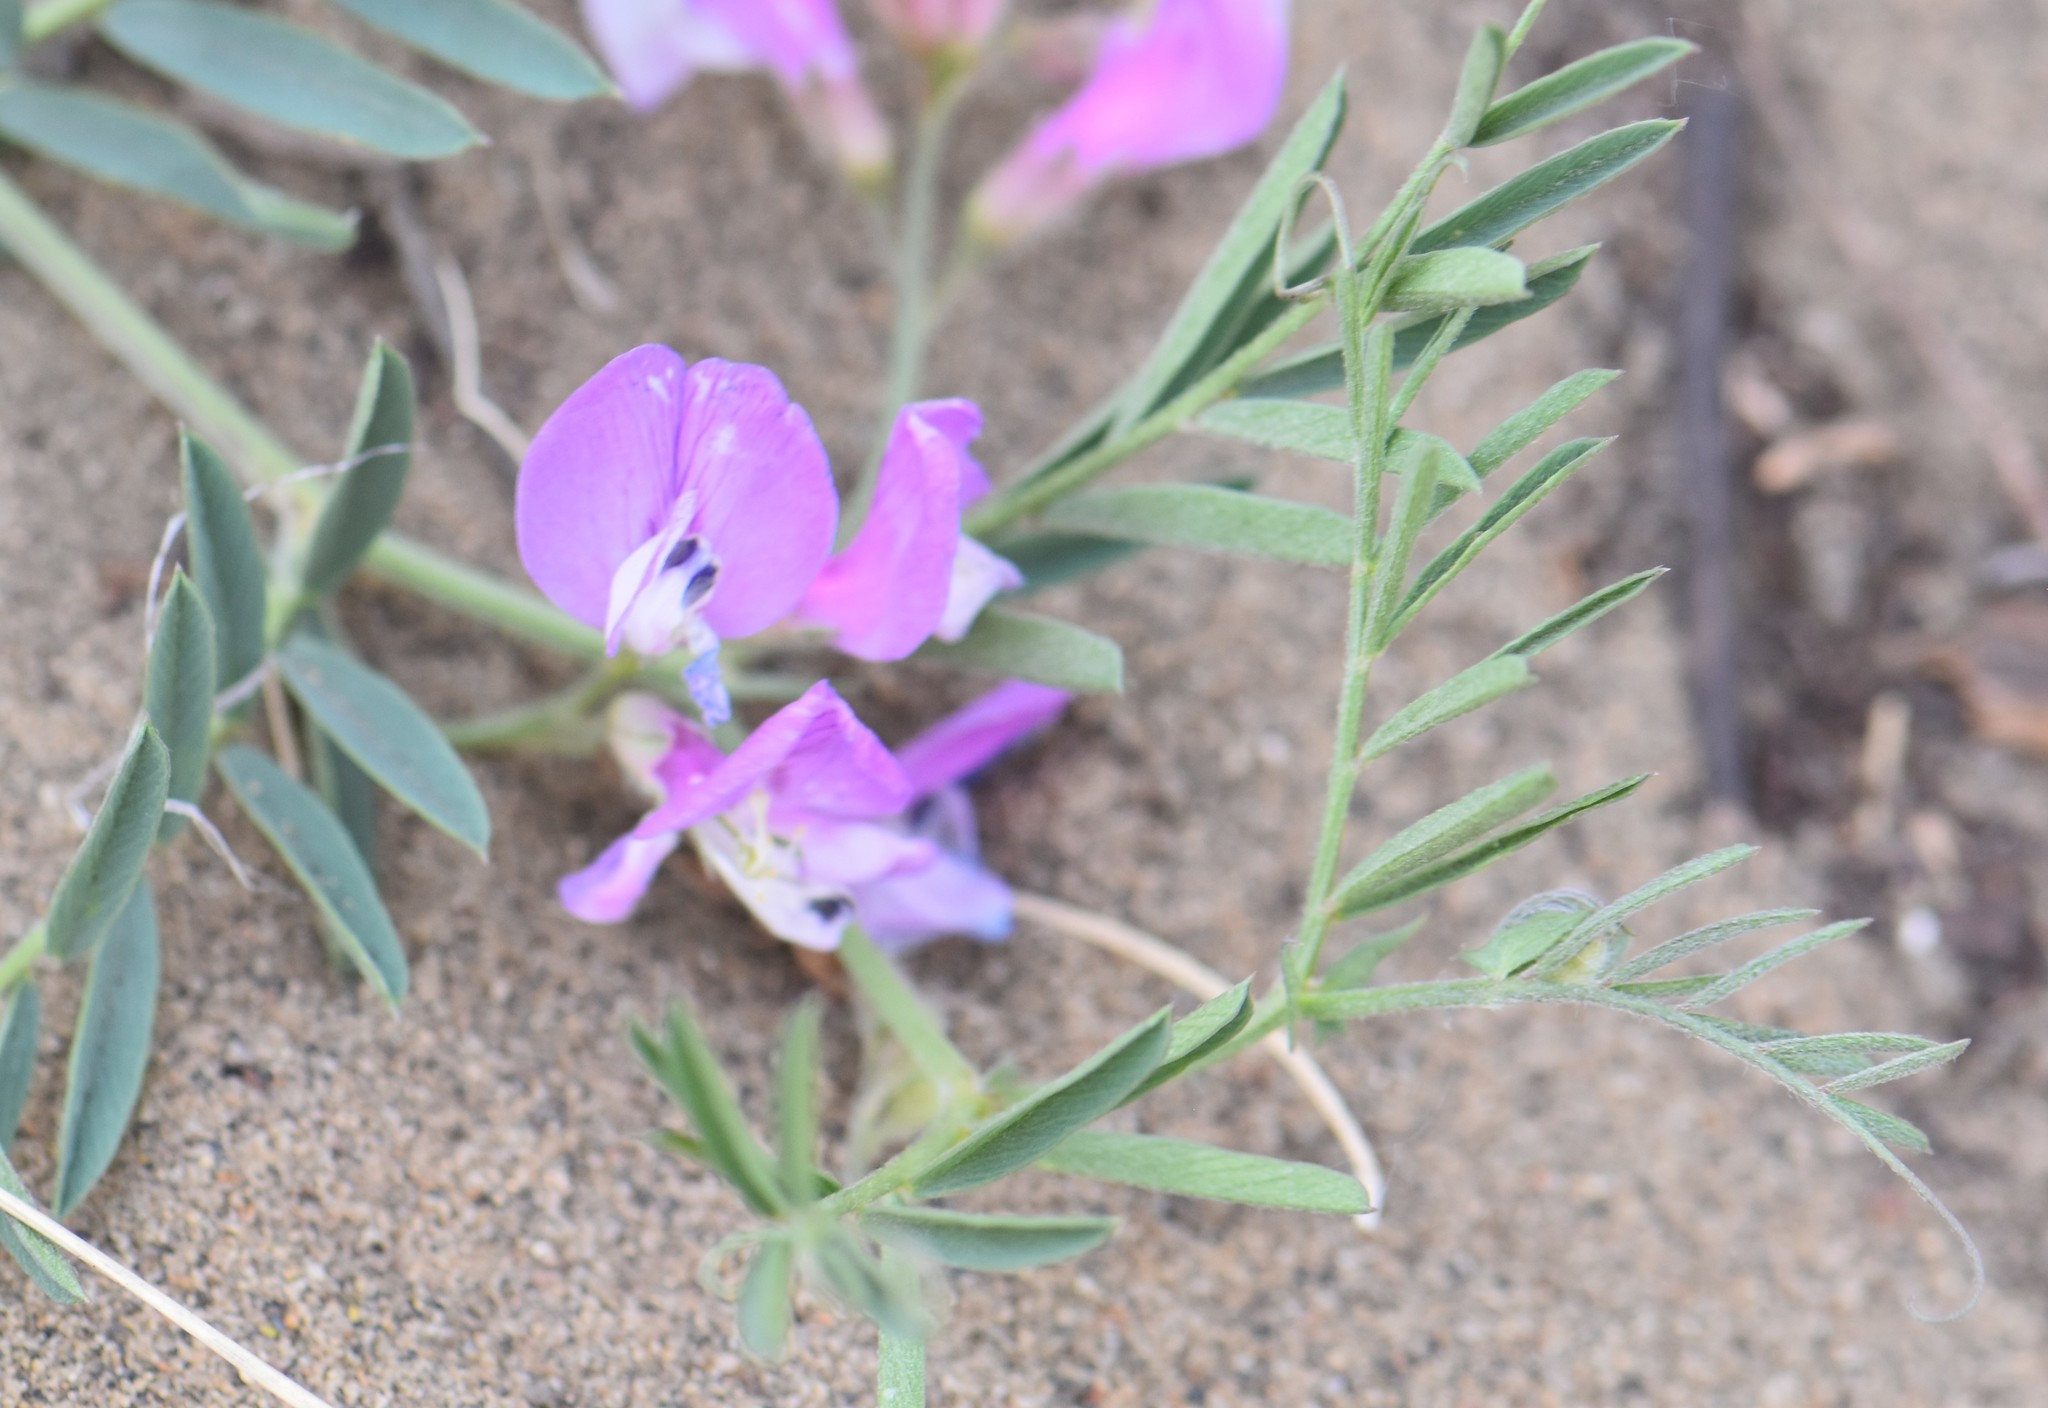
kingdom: Plantae
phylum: Tracheophyta
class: Magnoliopsida
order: Fabales
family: Fabaceae
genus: Vicia
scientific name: Vicia americana
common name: American vetch
